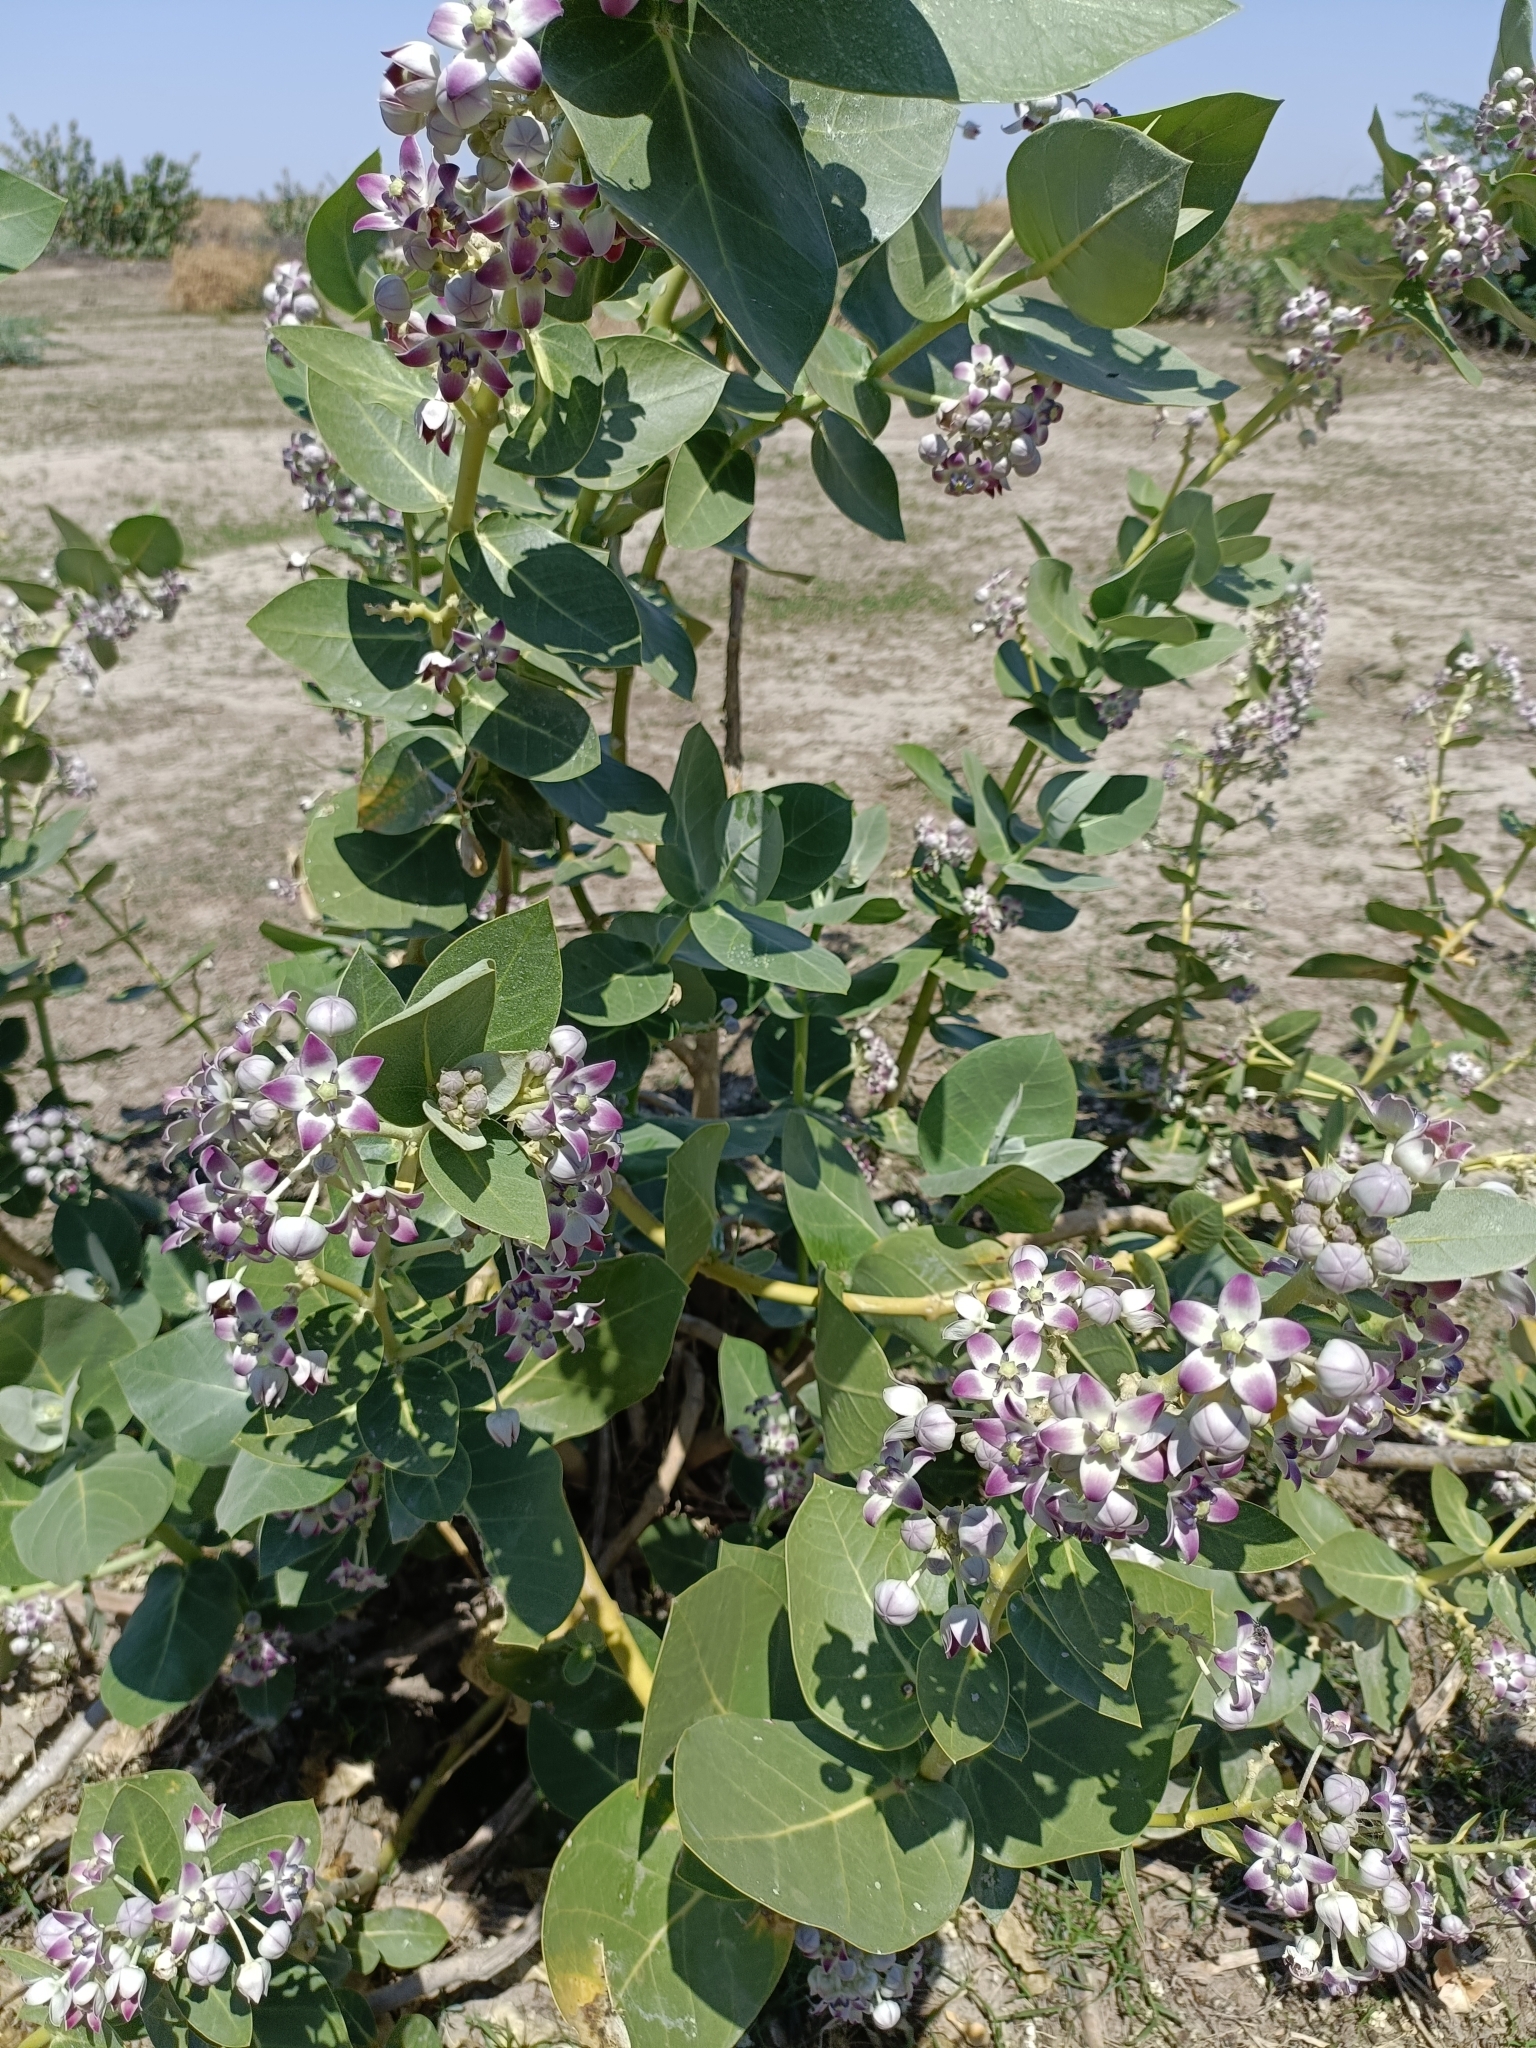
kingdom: Plantae
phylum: Tracheophyta
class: Magnoliopsida
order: Gentianales
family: Apocynaceae
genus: Calotropis
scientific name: Calotropis procera
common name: Roostertree
